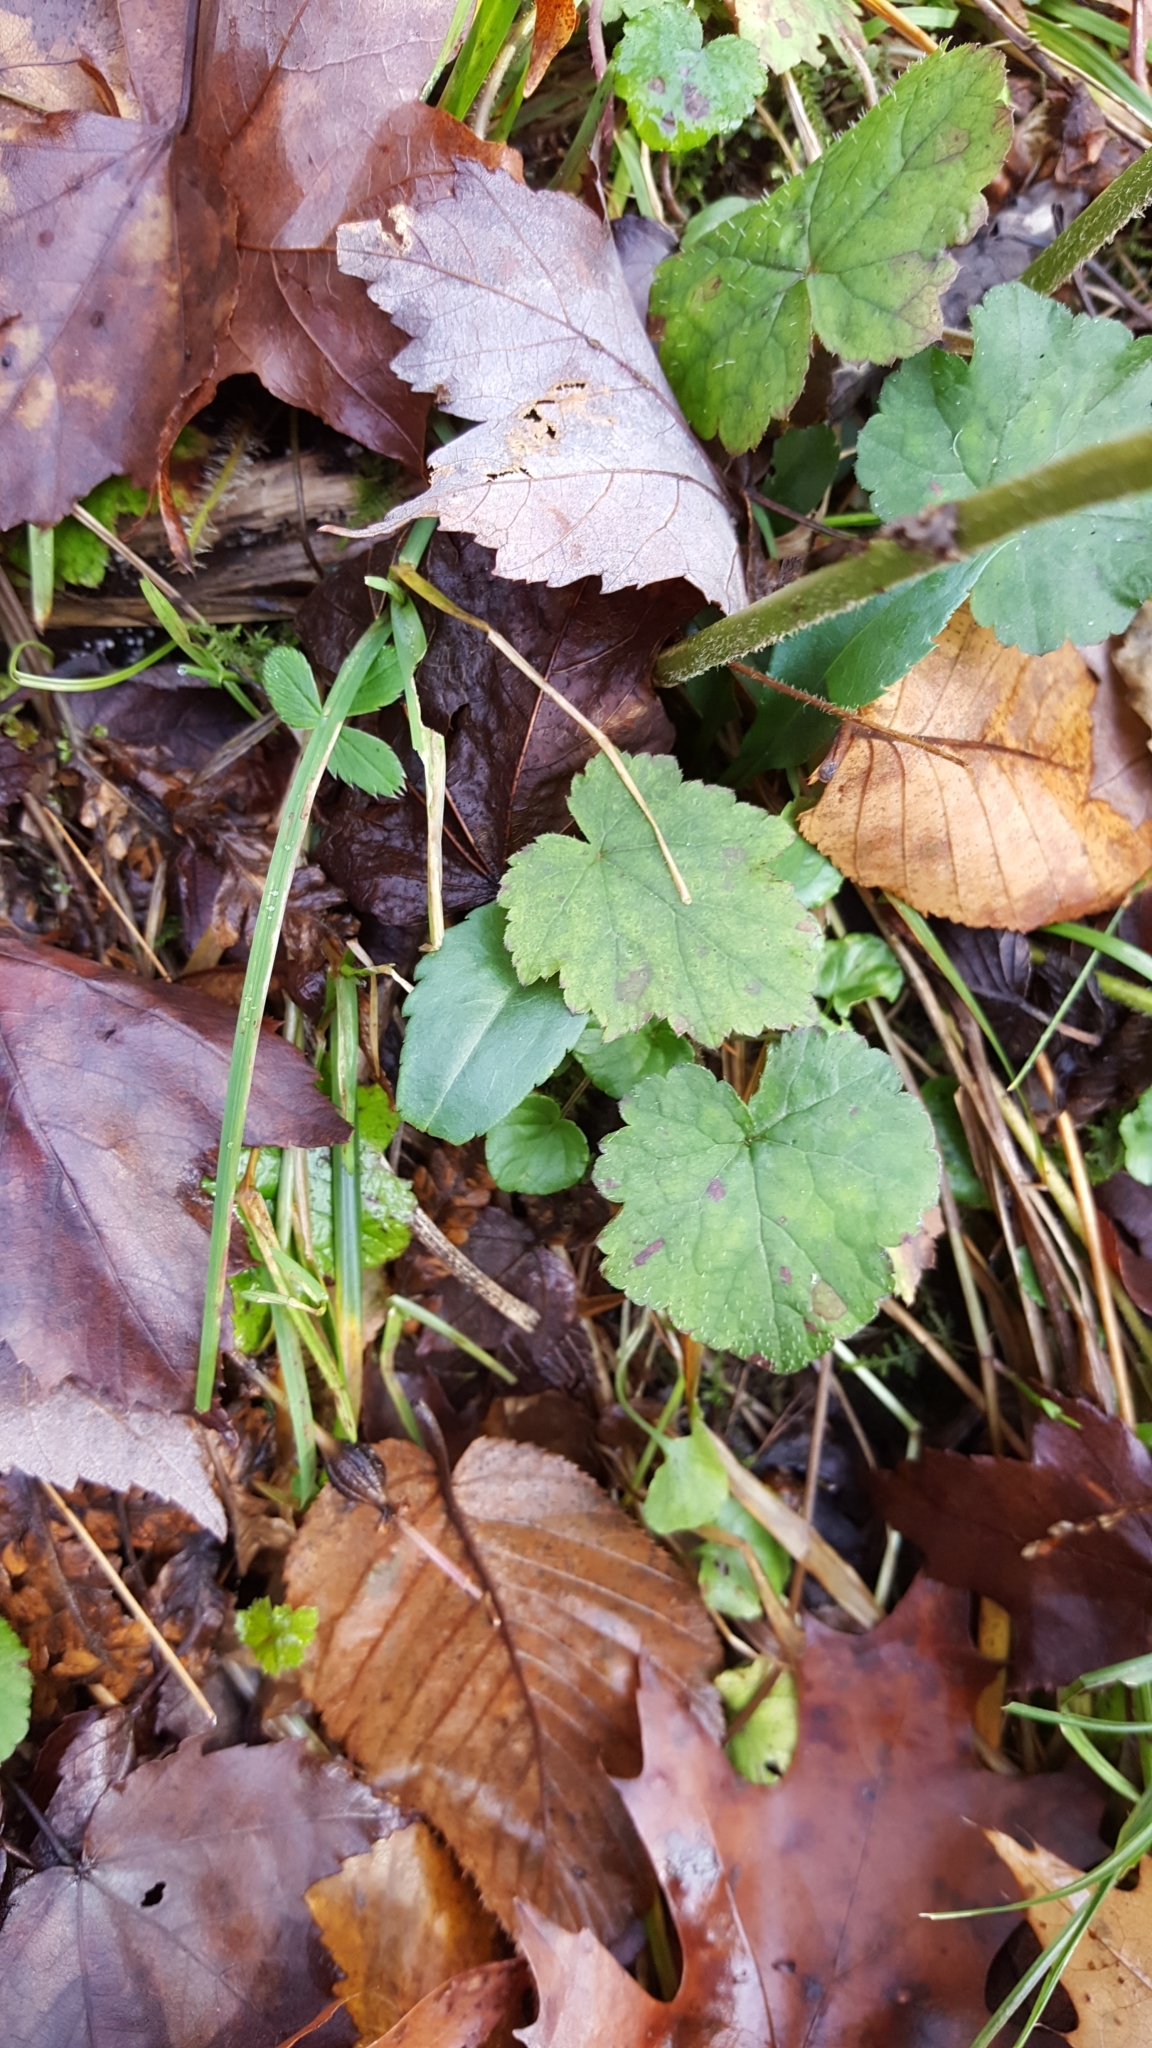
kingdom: Plantae
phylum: Tracheophyta
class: Magnoliopsida
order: Saxifragales
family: Saxifragaceae
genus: Tiarella
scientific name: Tiarella stolonifera
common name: Stoloniferous foamflower
